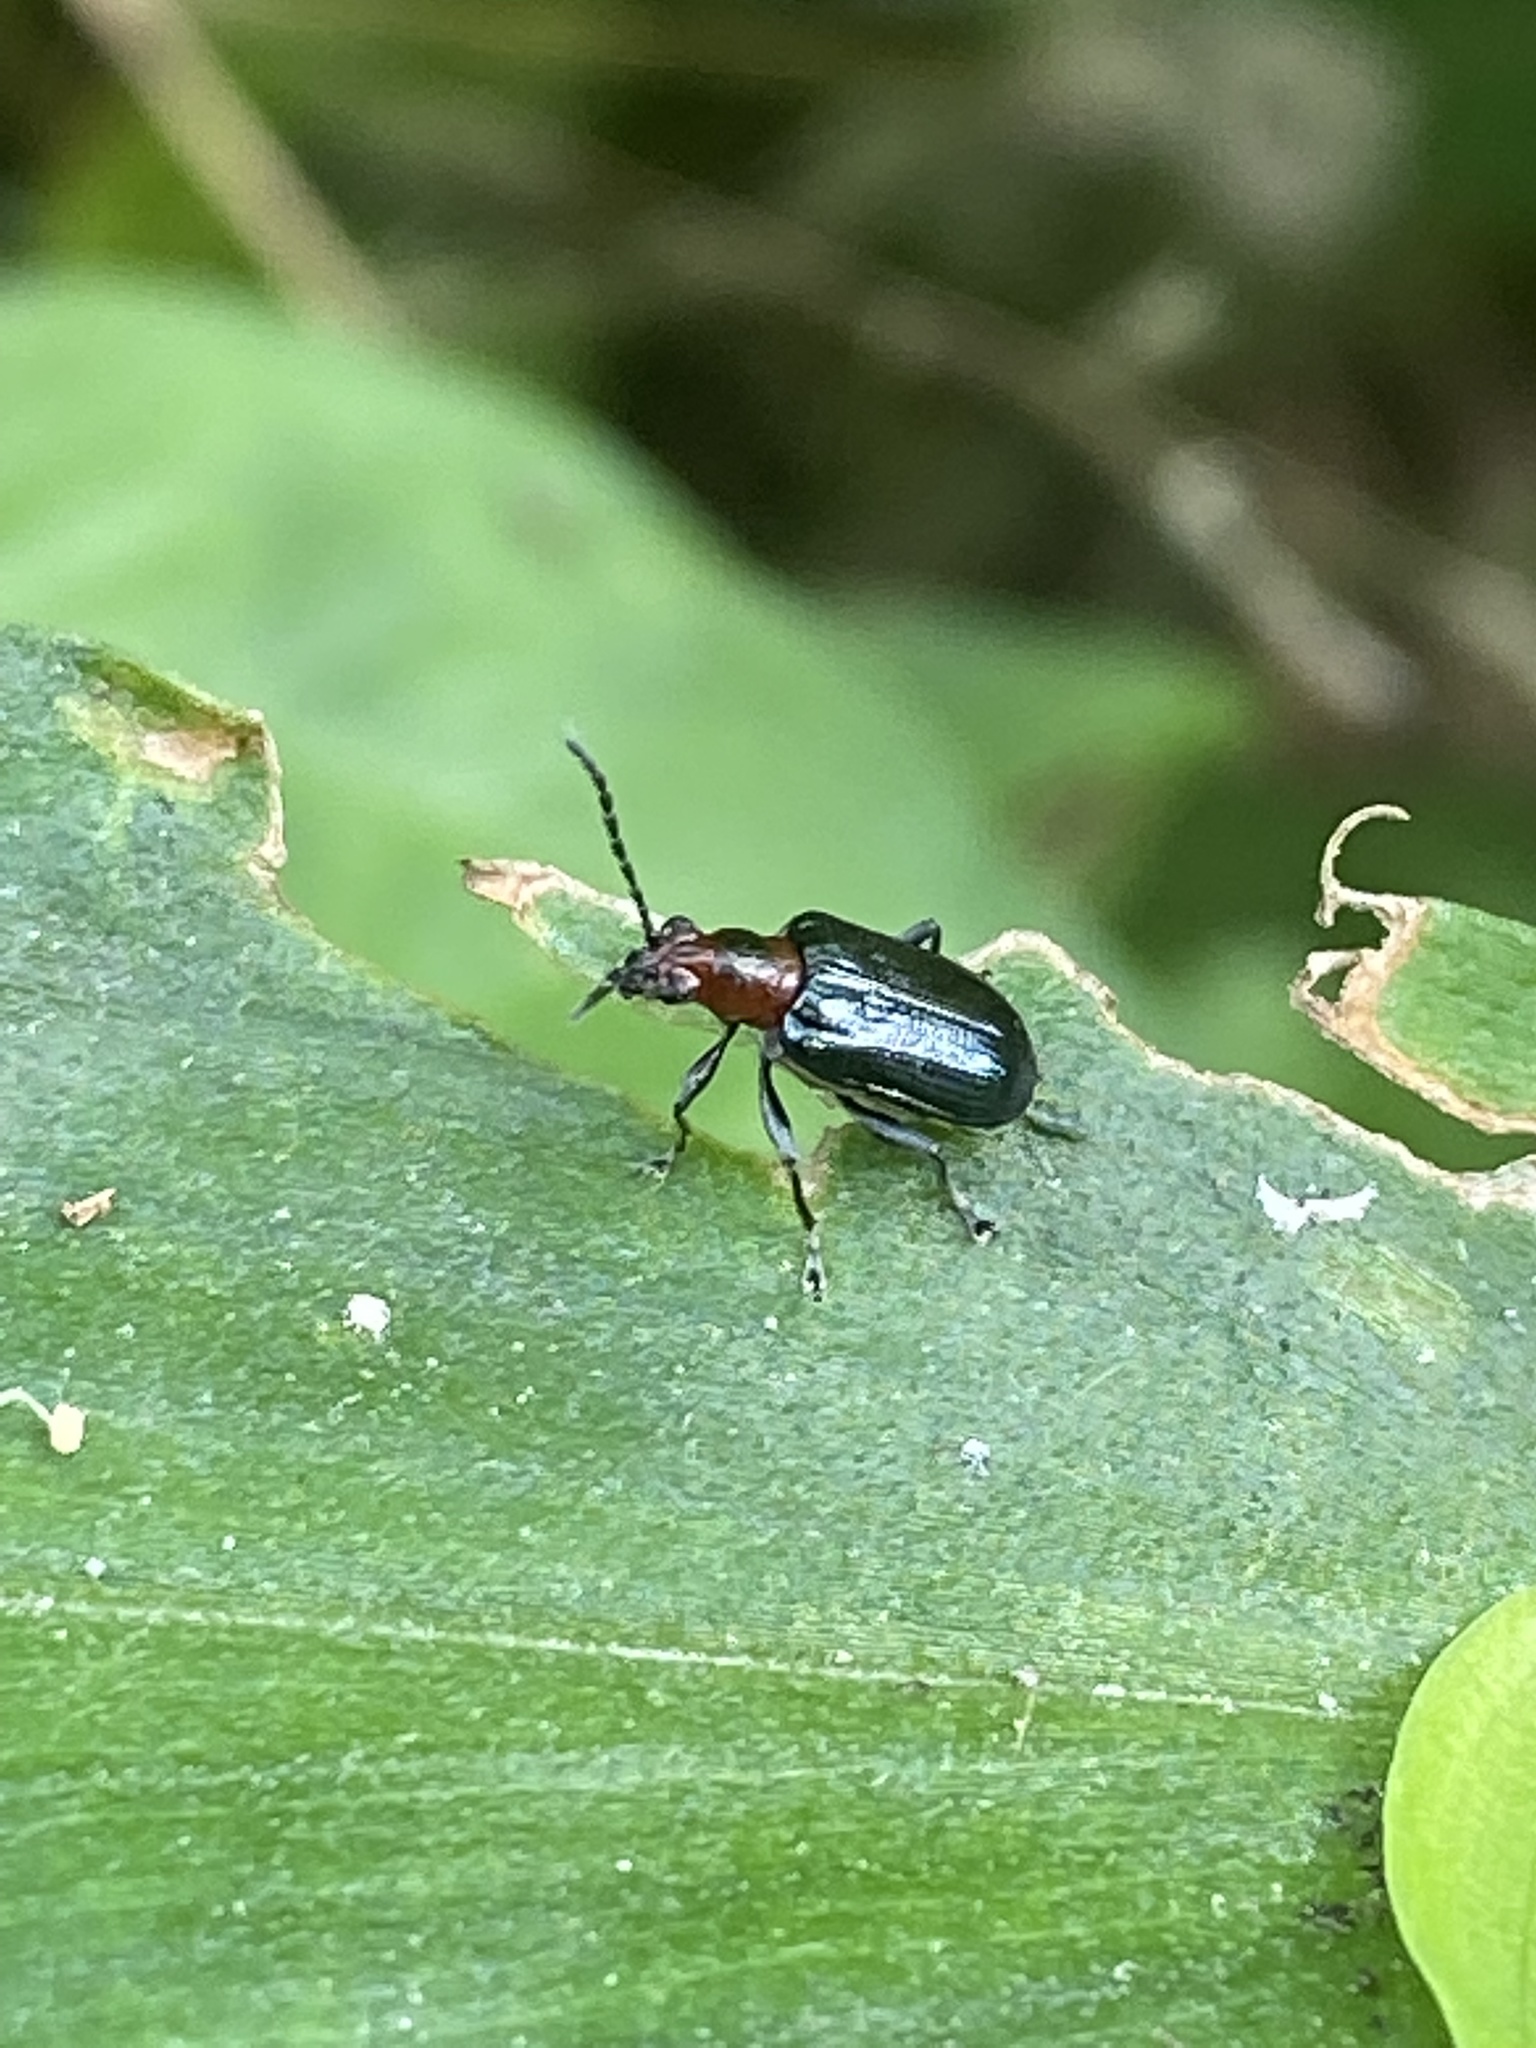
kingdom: Animalia
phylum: Arthropoda
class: Insecta
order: Coleoptera
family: Chrysomelidae
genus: Oulema
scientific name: Oulema melanopus
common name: Cereal leaf beetle
